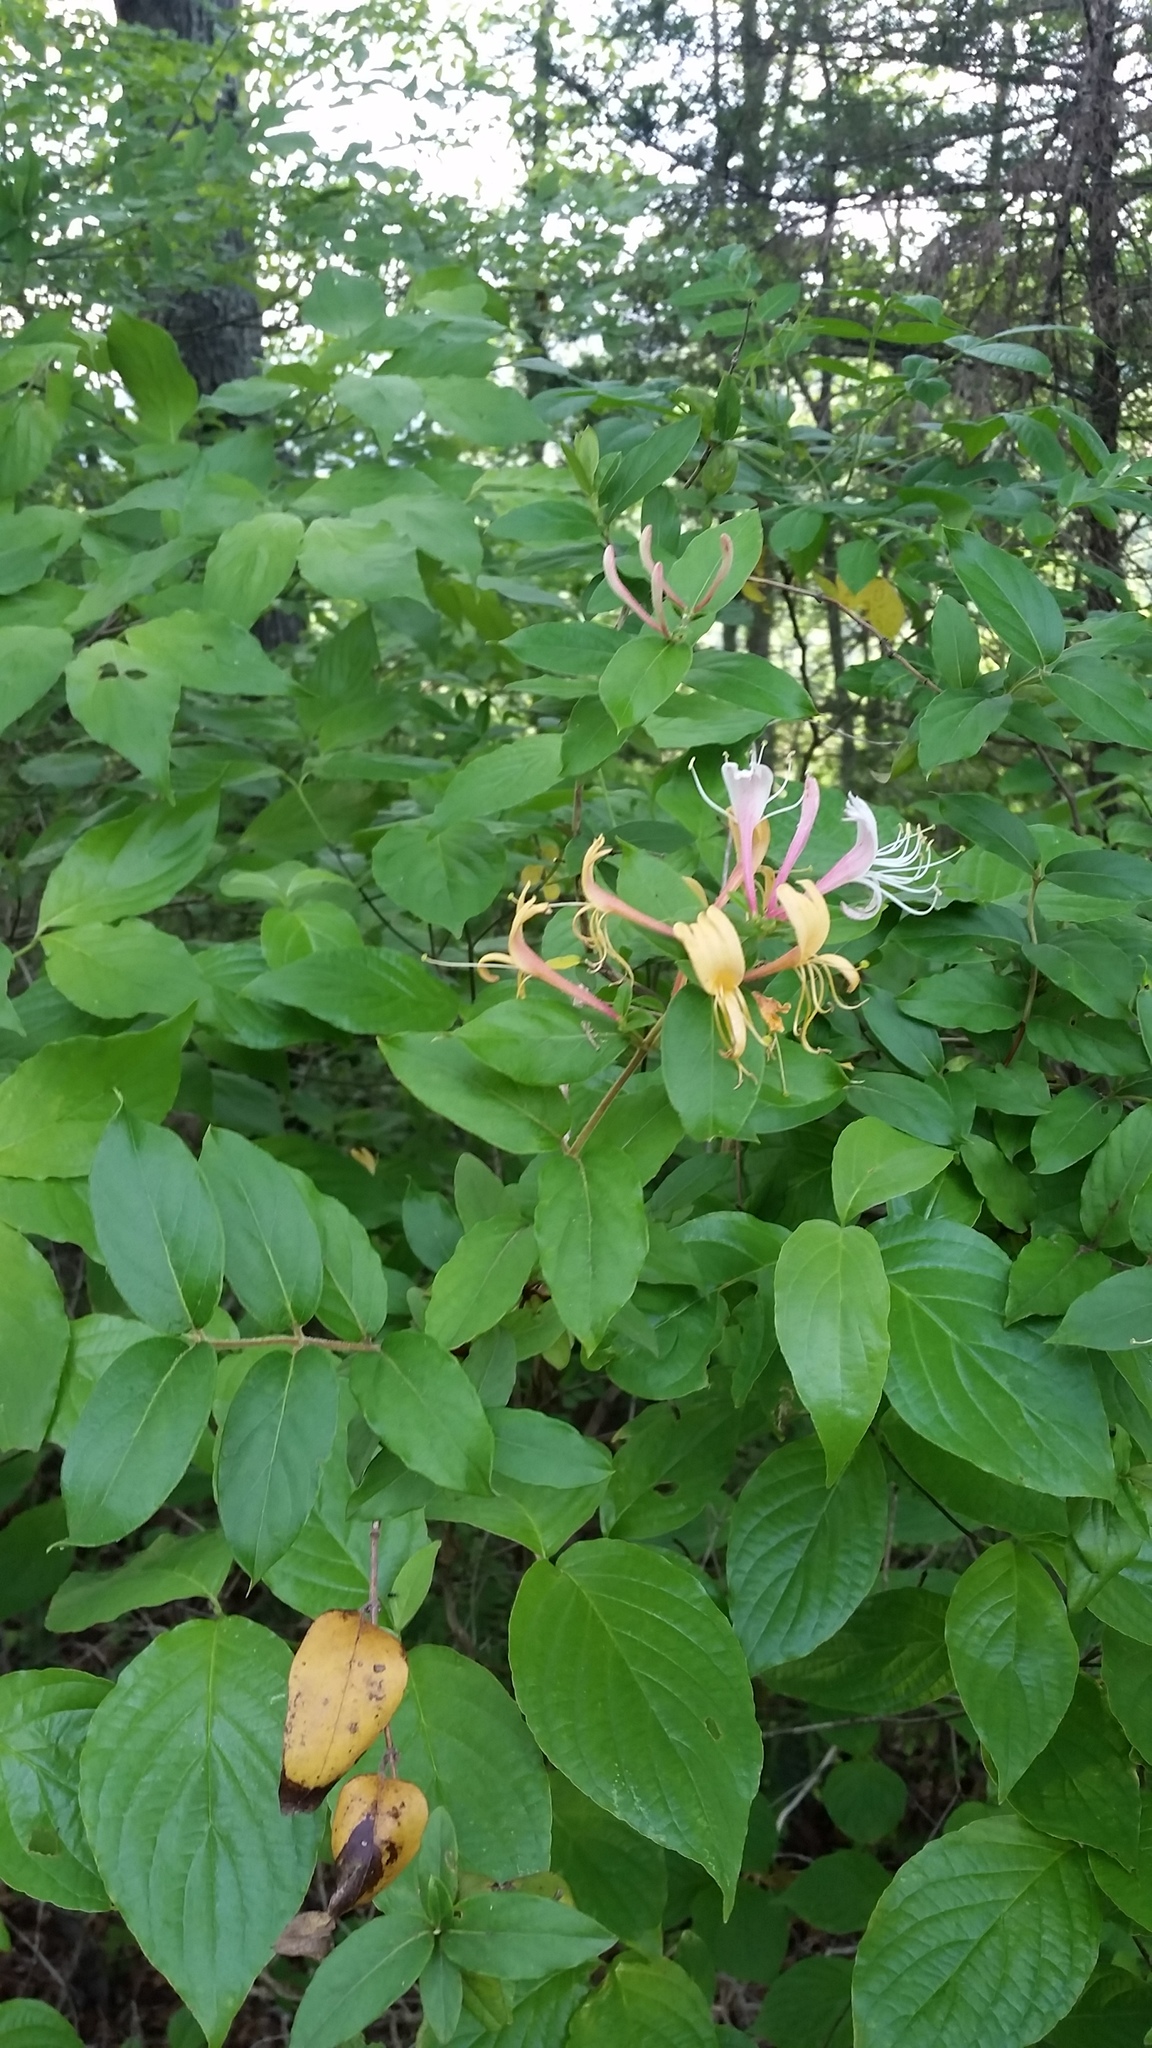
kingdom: Plantae
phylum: Tracheophyta
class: Magnoliopsida
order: Dipsacales
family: Caprifoliaceae
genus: Lonicera
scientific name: Lonicera japonica
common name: Japanese honeysuckle
